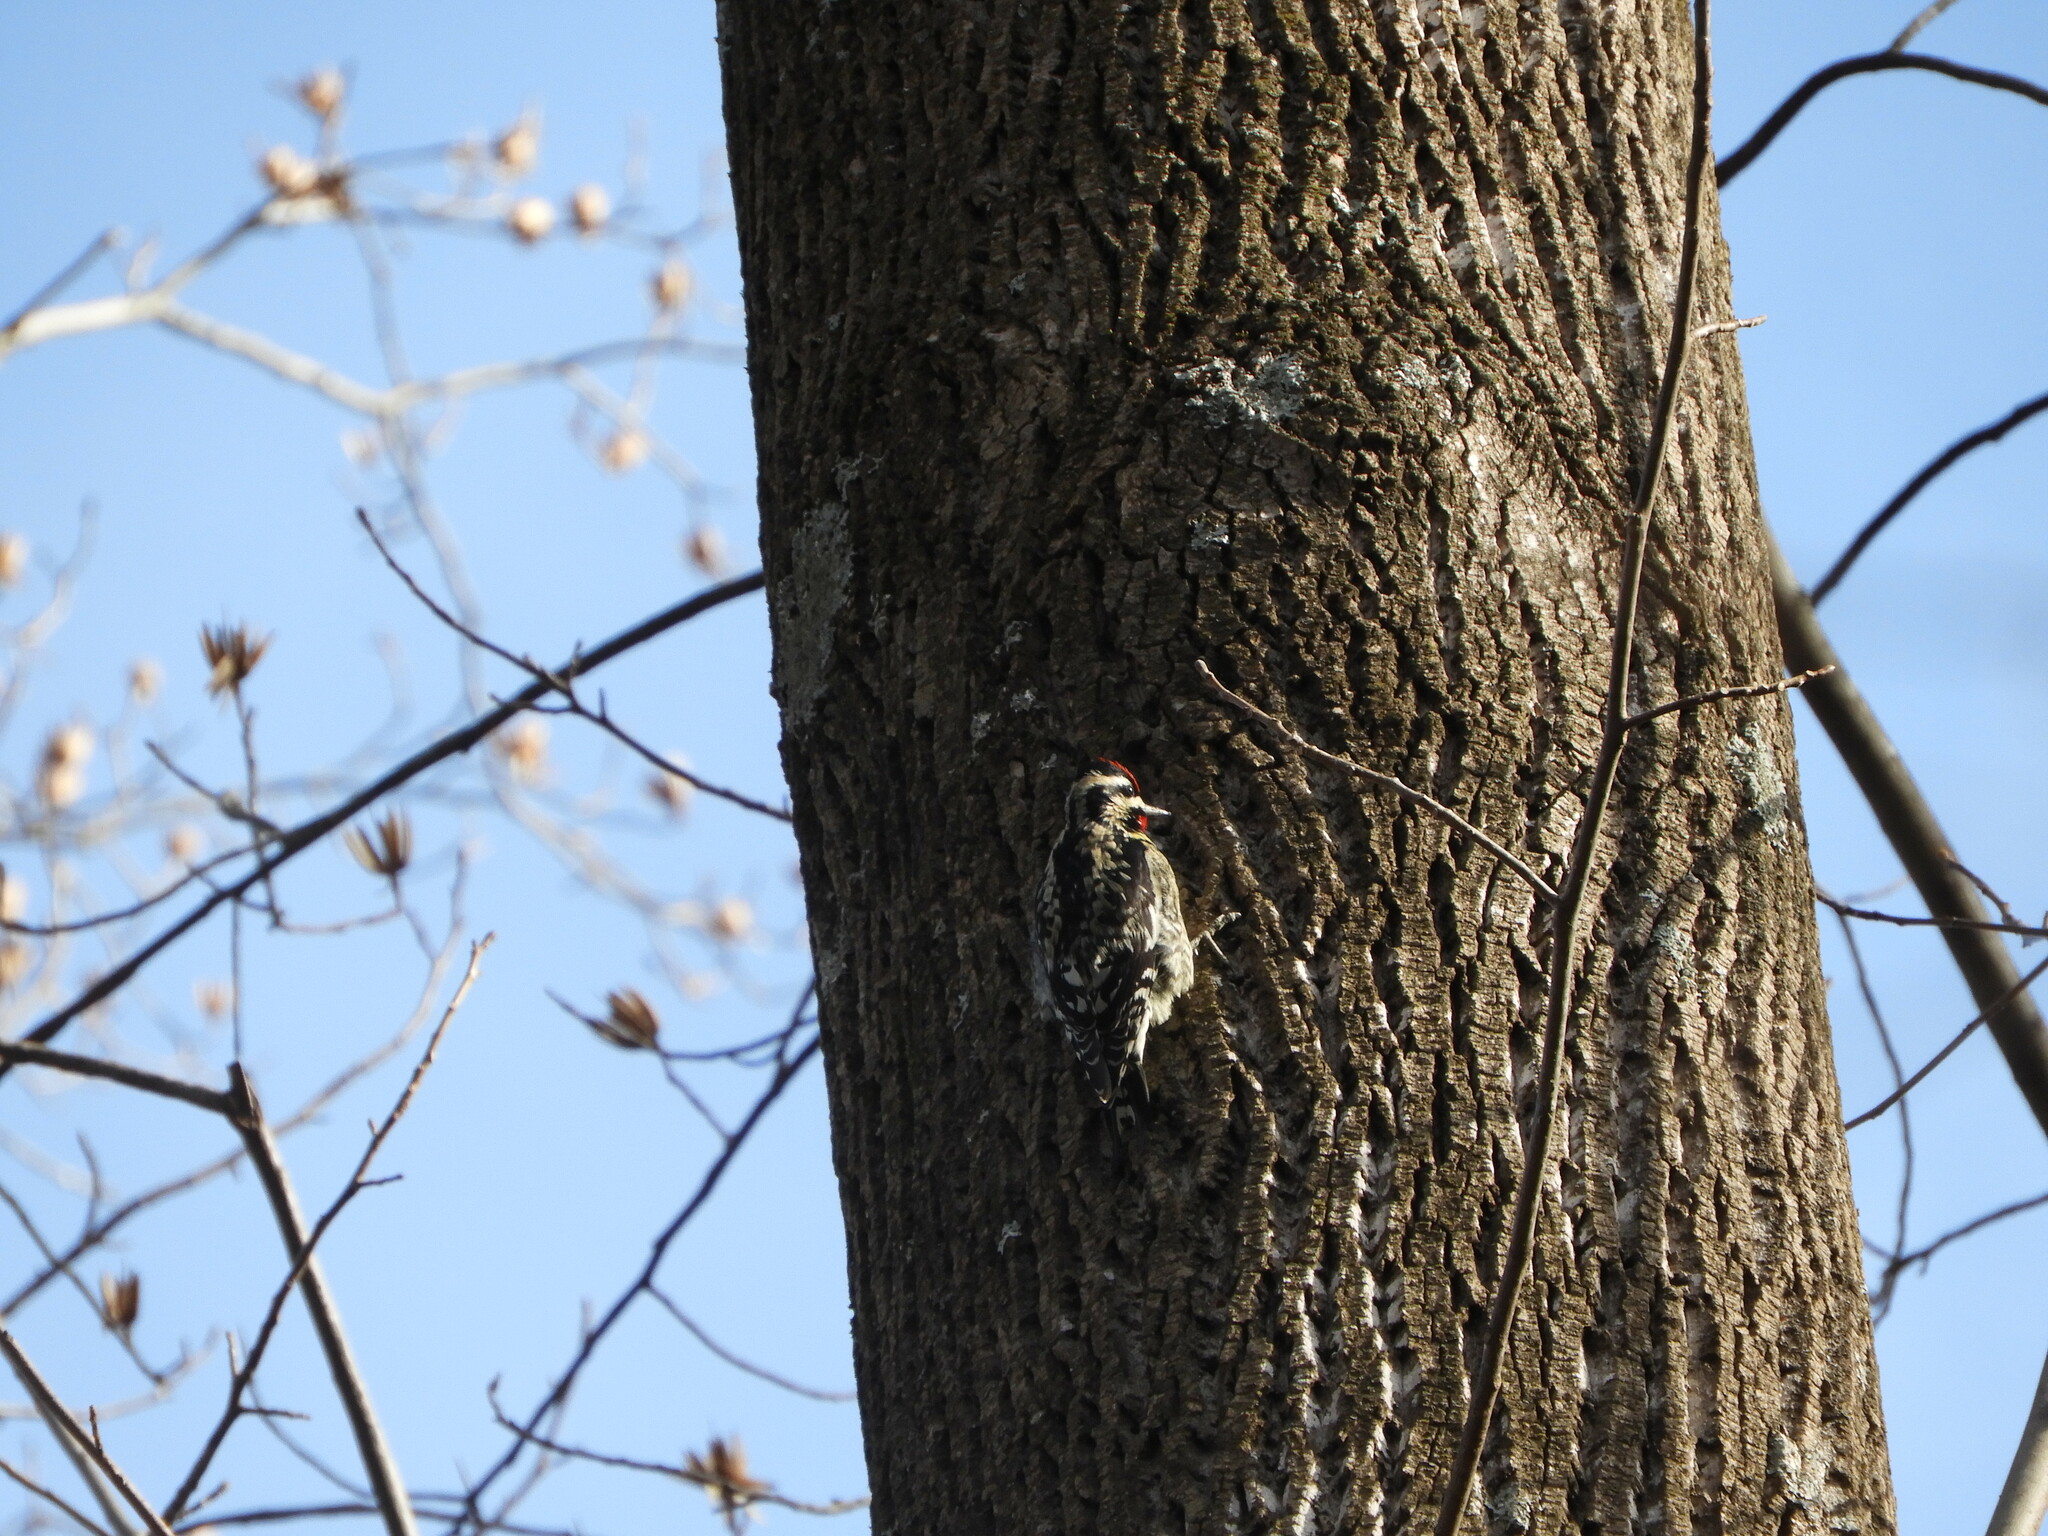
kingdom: Animalia
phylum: Chordata
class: Aves
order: Piciformes
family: Picidae
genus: Sphyrapicus
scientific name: Sphyrapicus varius
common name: Yellow-bellied sapsucker
